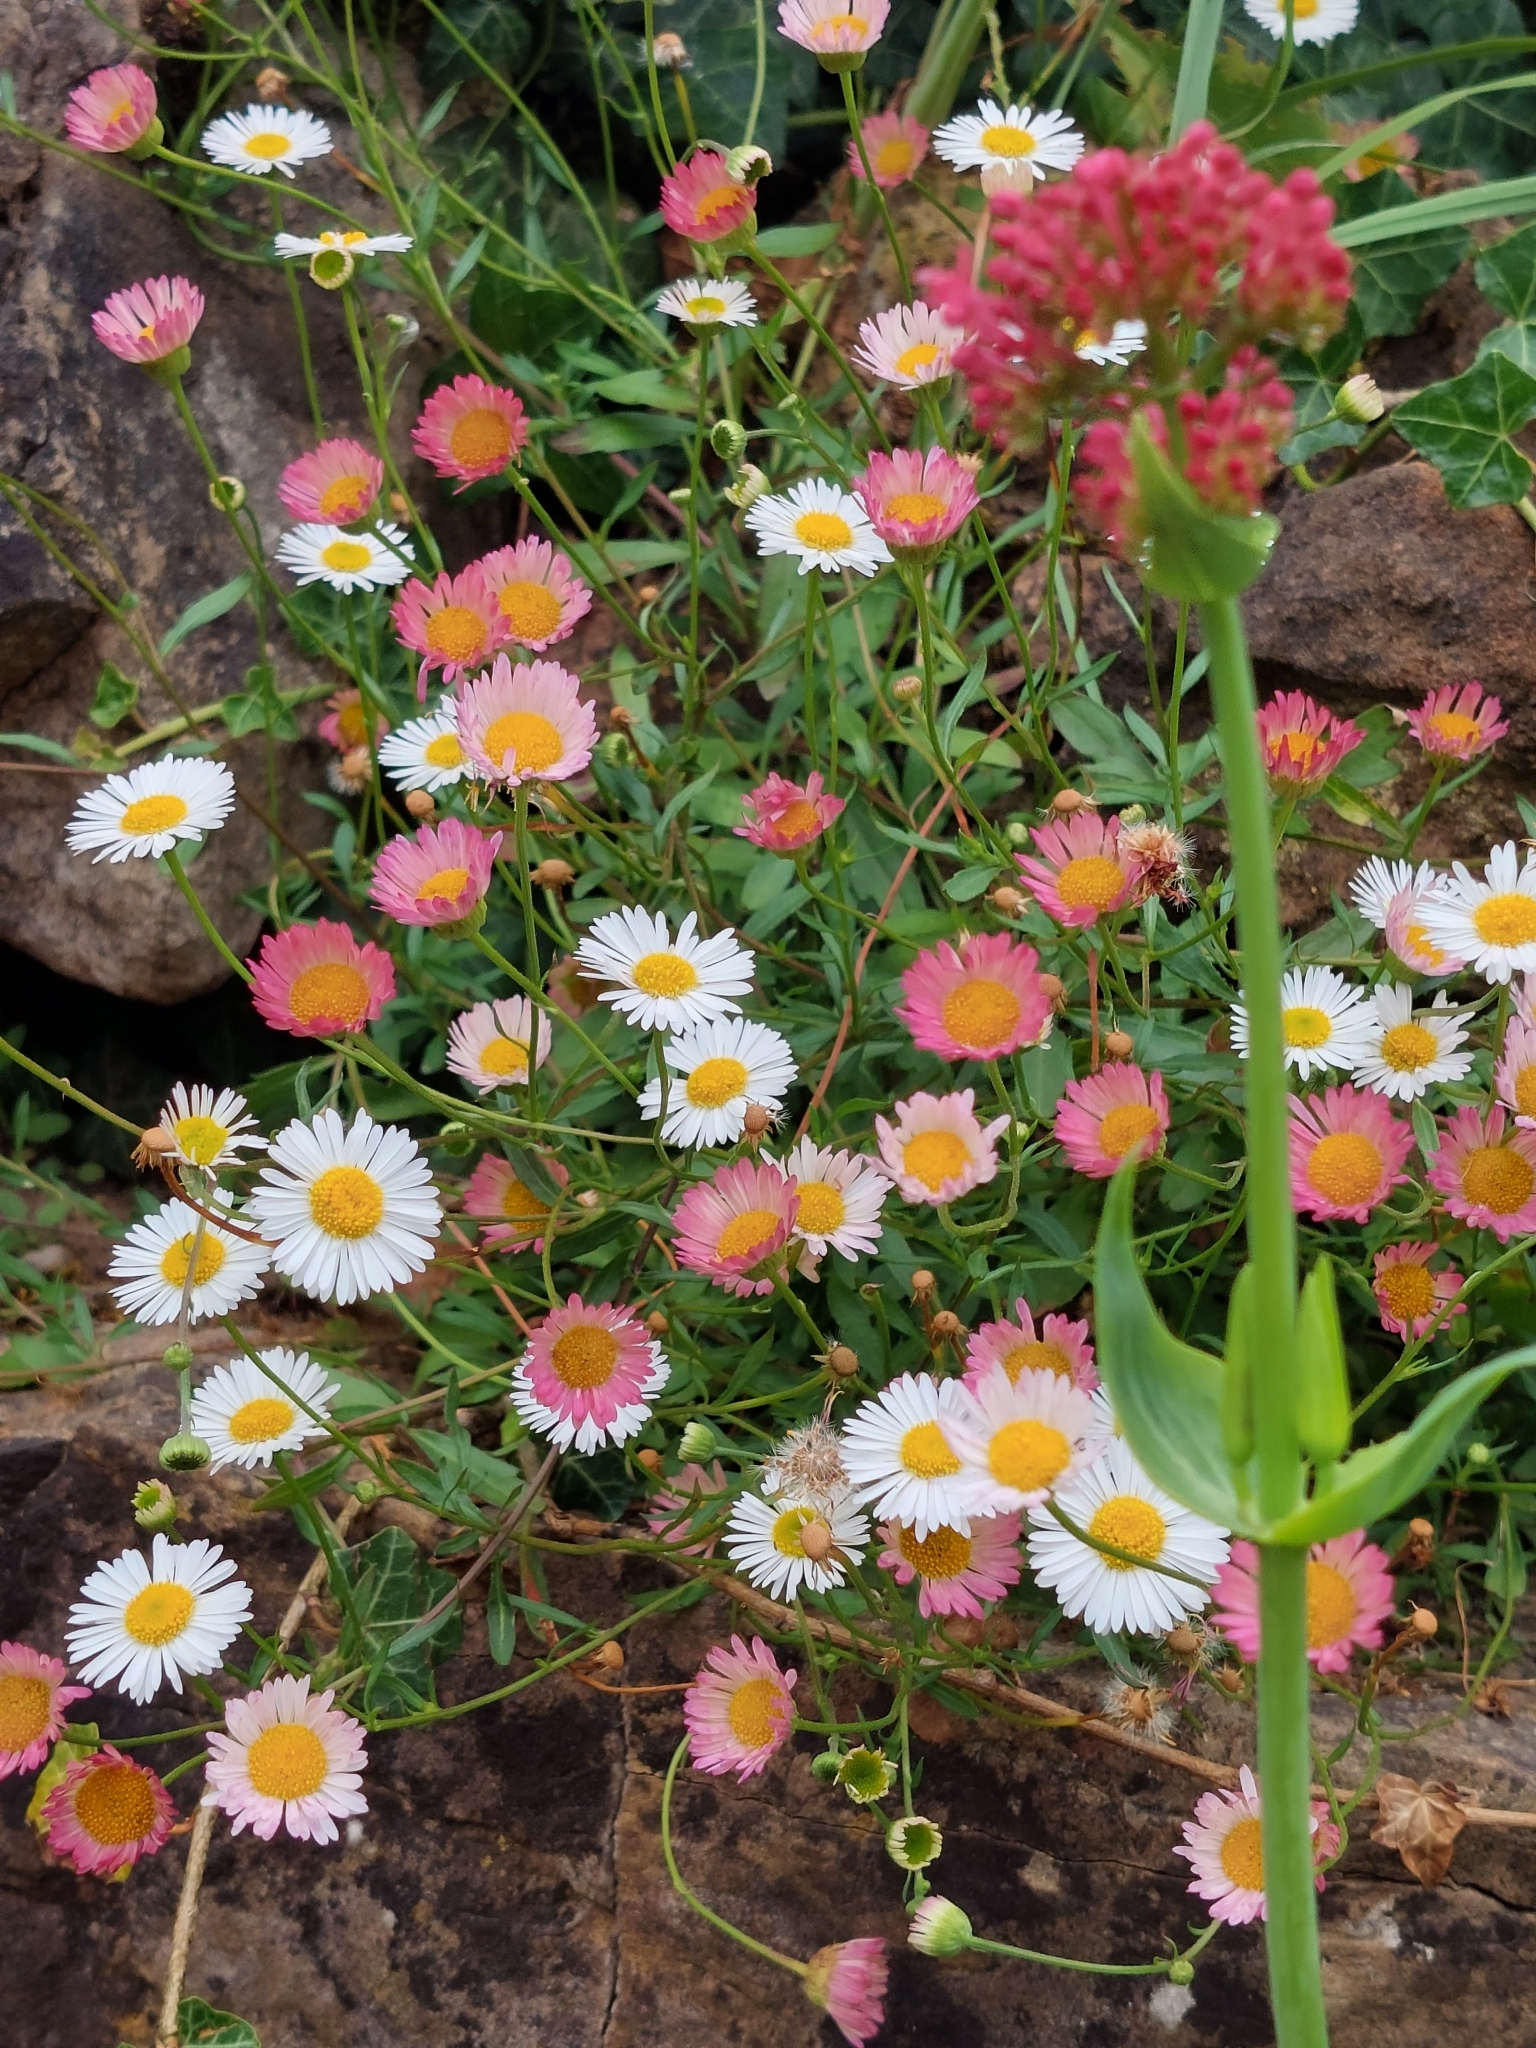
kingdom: Plantae
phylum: Tracheophyta
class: Magnoliopsida
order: Asterales
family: Asteraceae
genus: Erigeron
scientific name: Erigeron karvinskianus
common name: Mexican fleabane
